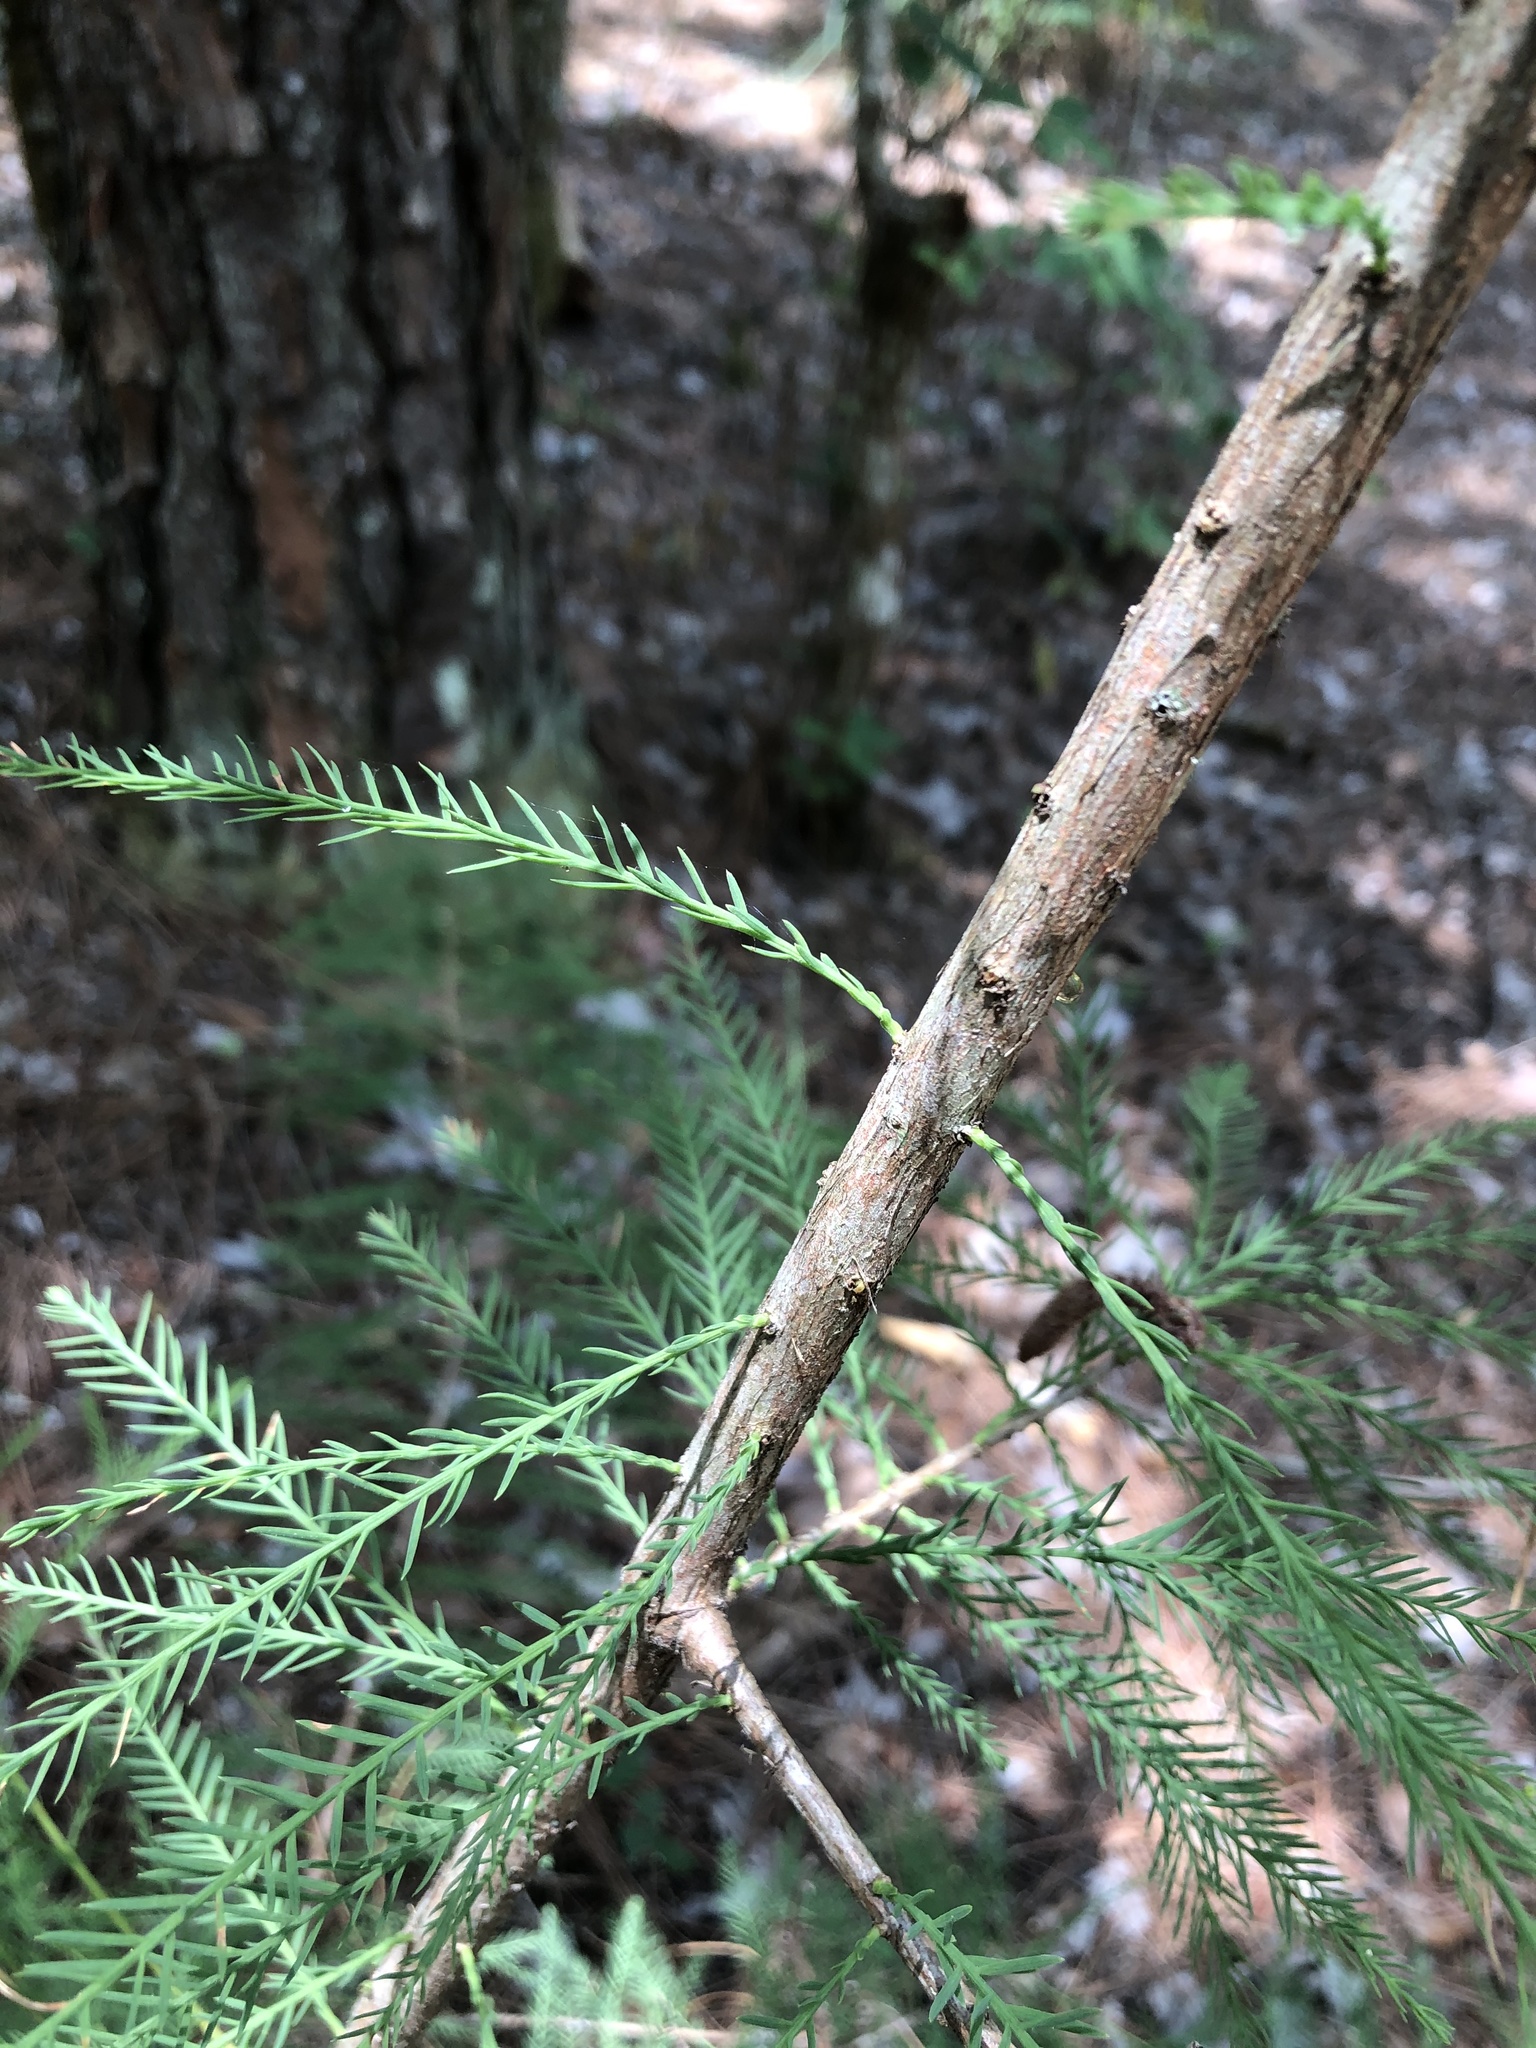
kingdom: Plantae
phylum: Tracheophyta
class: Pinopsida
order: Pinales
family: Cupressaceae
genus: Taxodium
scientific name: Taxodium distichum
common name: Bald cypress
